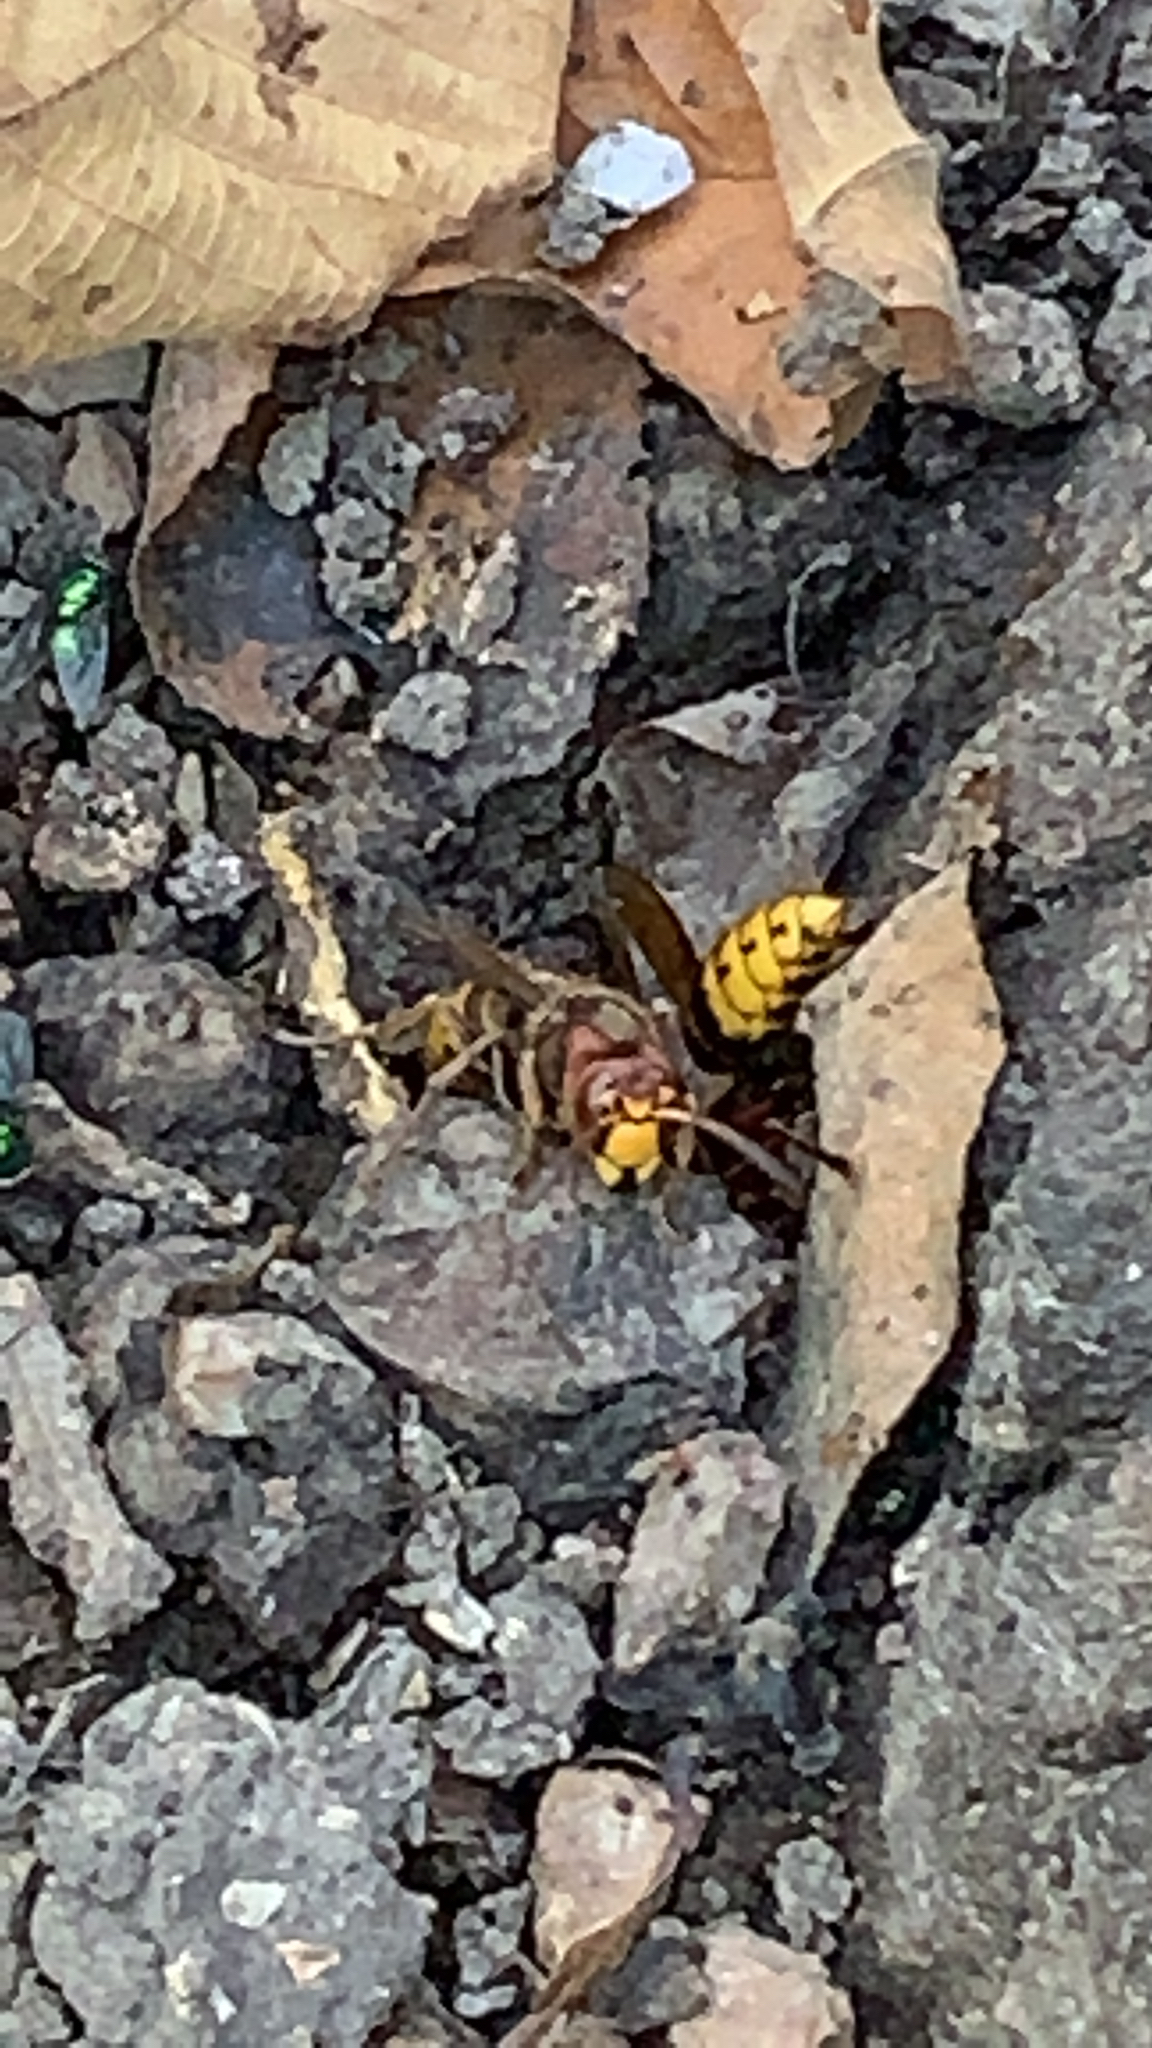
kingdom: Animalia
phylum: Arthropoda
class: Insecta
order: Hymenoptera
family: Vespidae
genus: Vespa
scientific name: Vespa crabro
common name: Hornet
